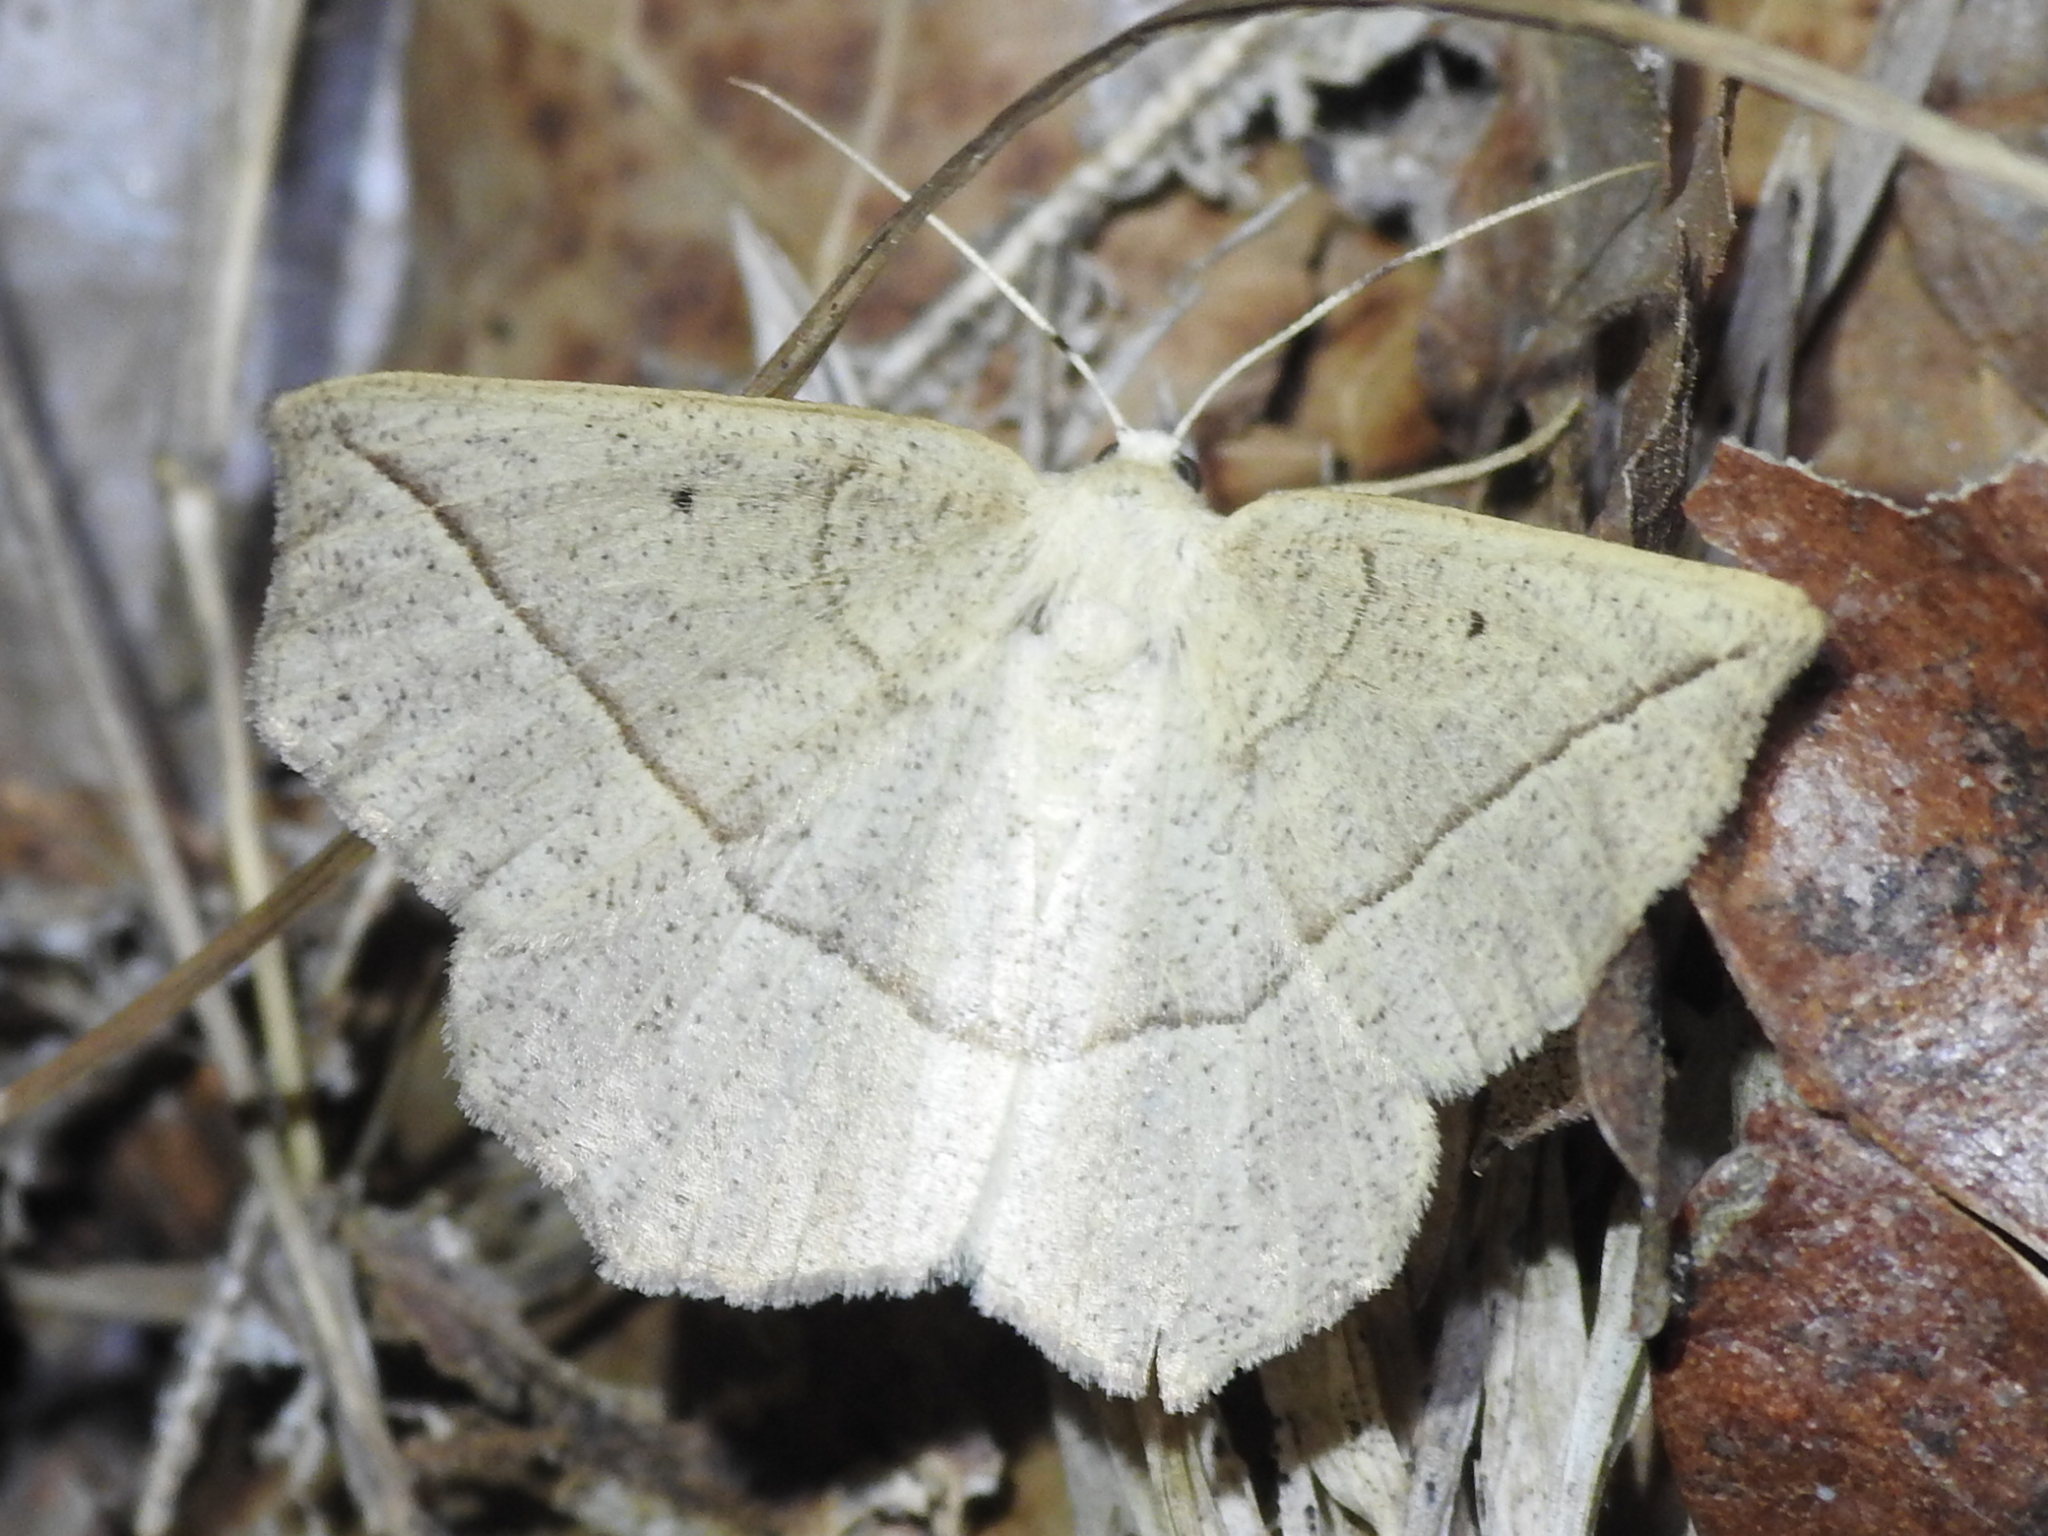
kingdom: Animalia
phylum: Arthropoda
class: Insecta
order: Lepidoptera
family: Geometridae
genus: Eusarca
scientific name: Eusarca confusaria
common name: Confused eusarca
